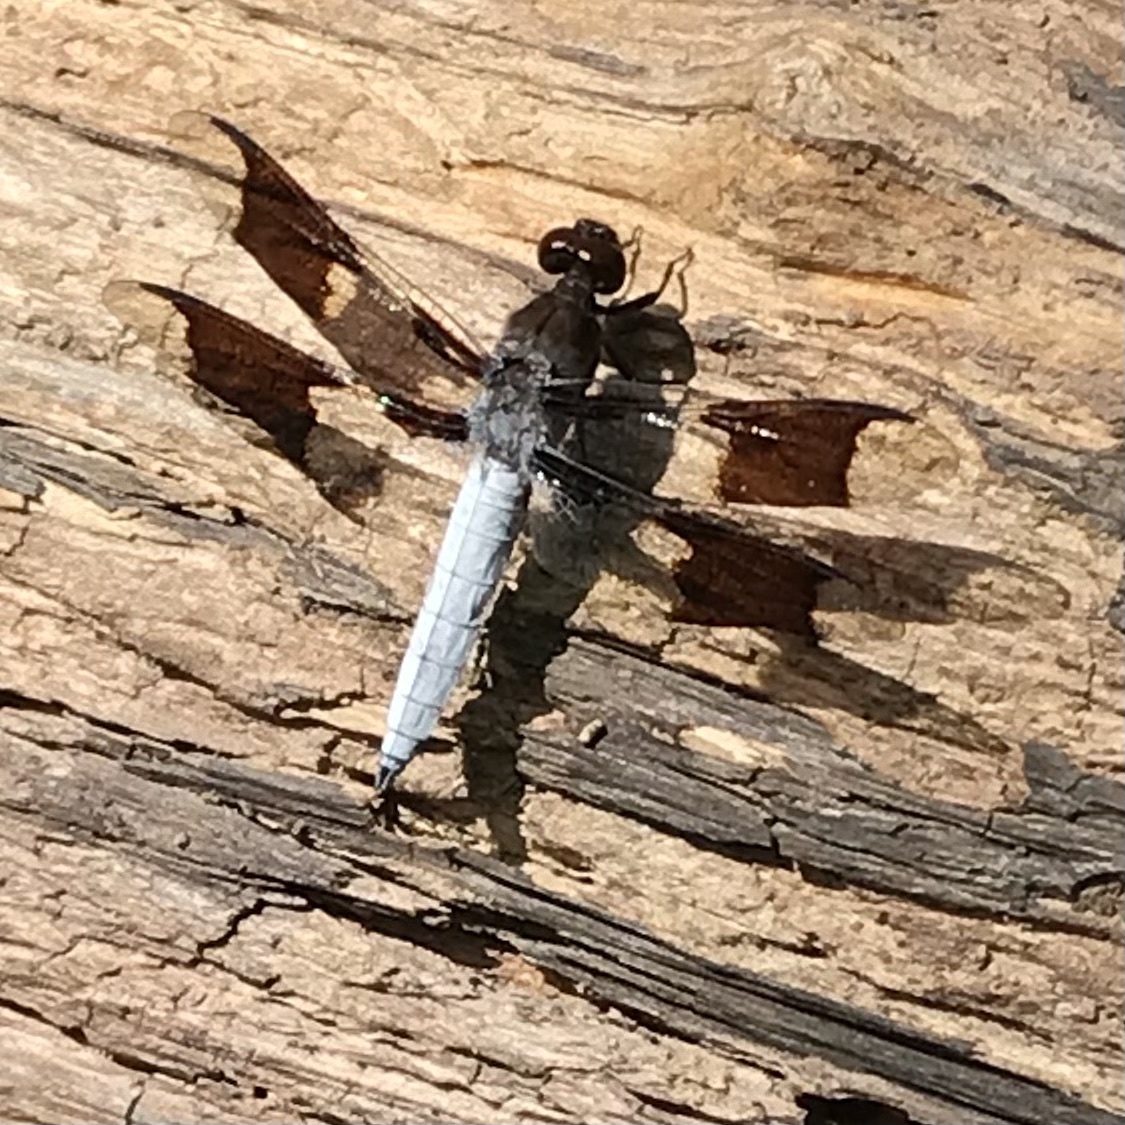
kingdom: Animalia
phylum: Arthropoda
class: Insecta
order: Odonata
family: Libellulidae
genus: Plathemis
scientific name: Plathemis lydia
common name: Common whitetail
